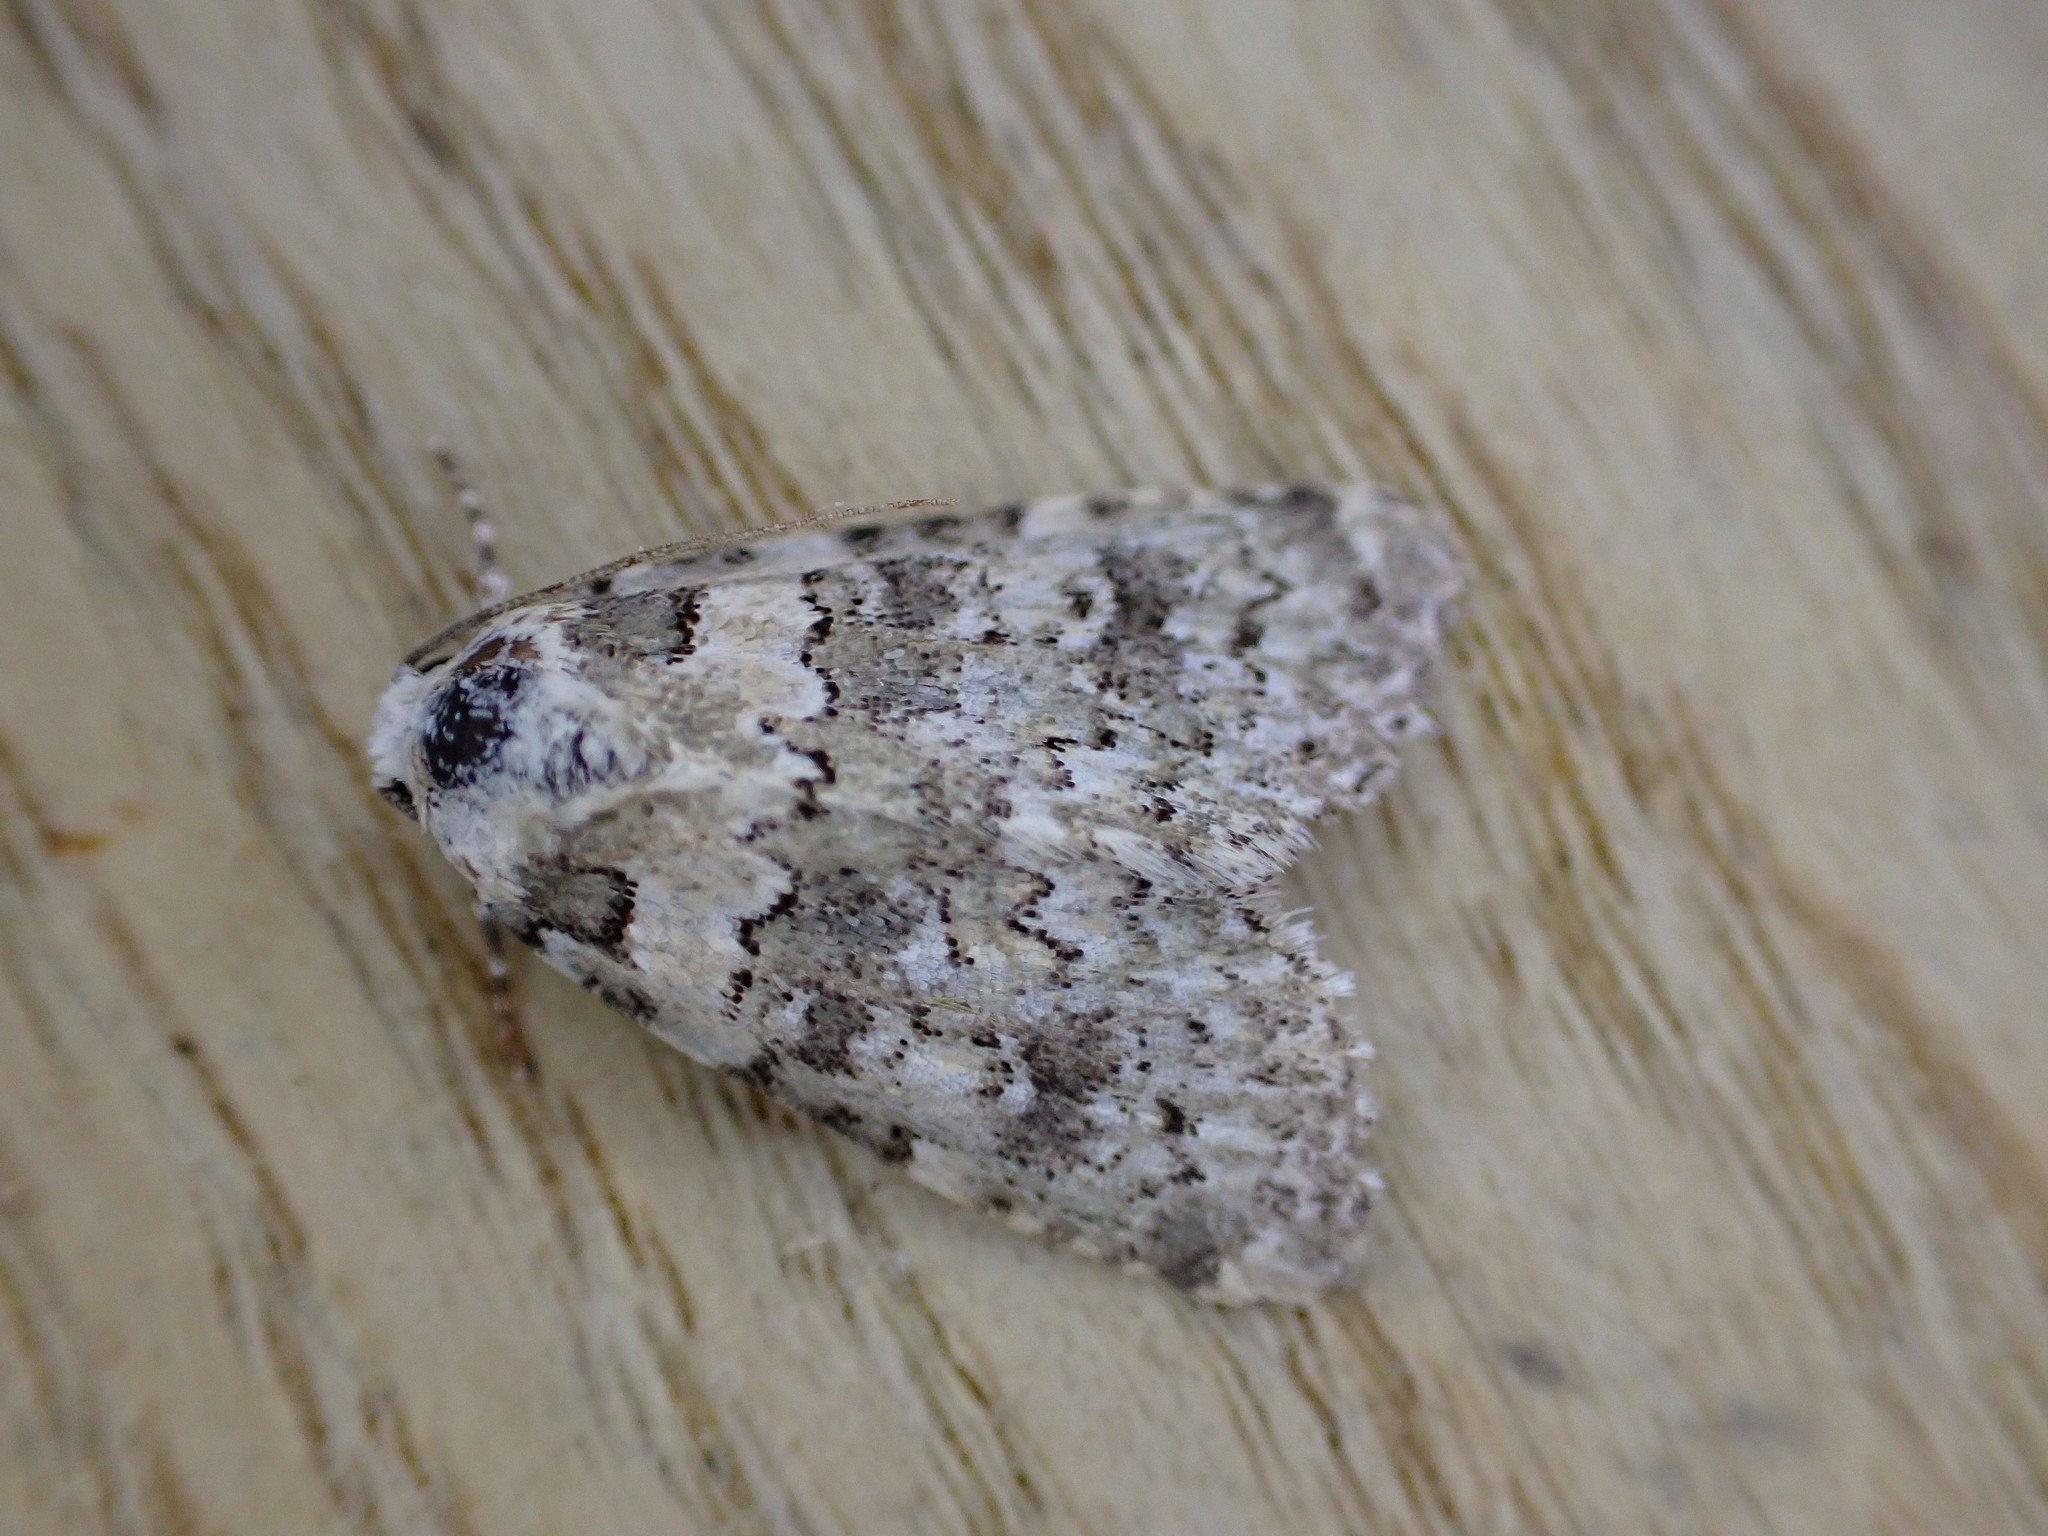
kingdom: Animalia
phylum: Arthropoda
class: Insecta
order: Lepidoptera
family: Noctuidae
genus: Bryophila
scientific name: Bryophila domestica
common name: Marbled beauty
